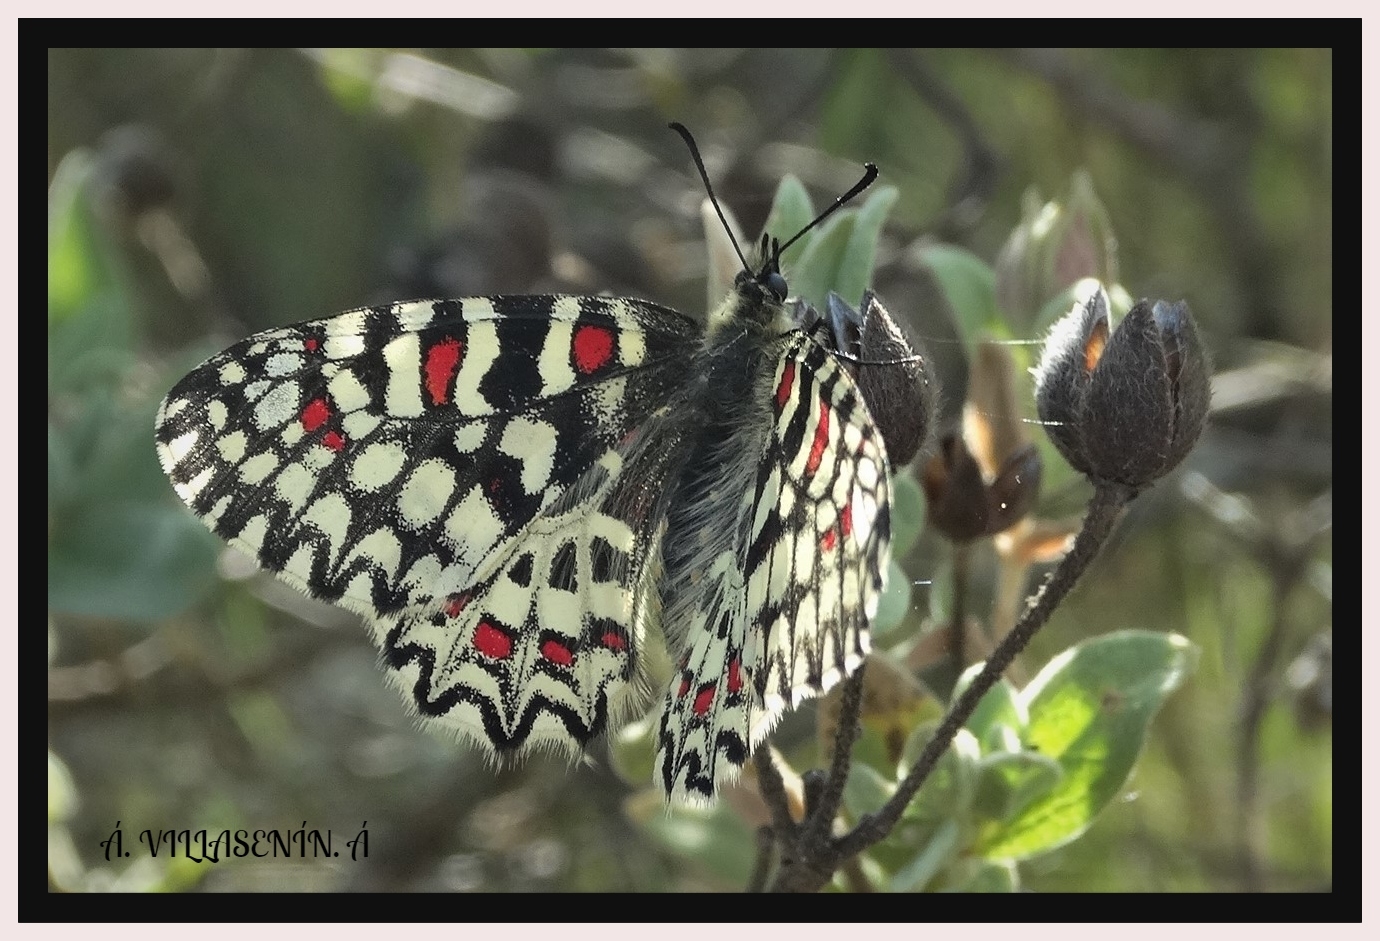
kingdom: Animalia
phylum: Arthropoda
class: Insecta
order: Lepidoptera
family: Papilionidae
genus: Zerynthia
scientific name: Zerynthia rumina
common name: Spanish festoon
